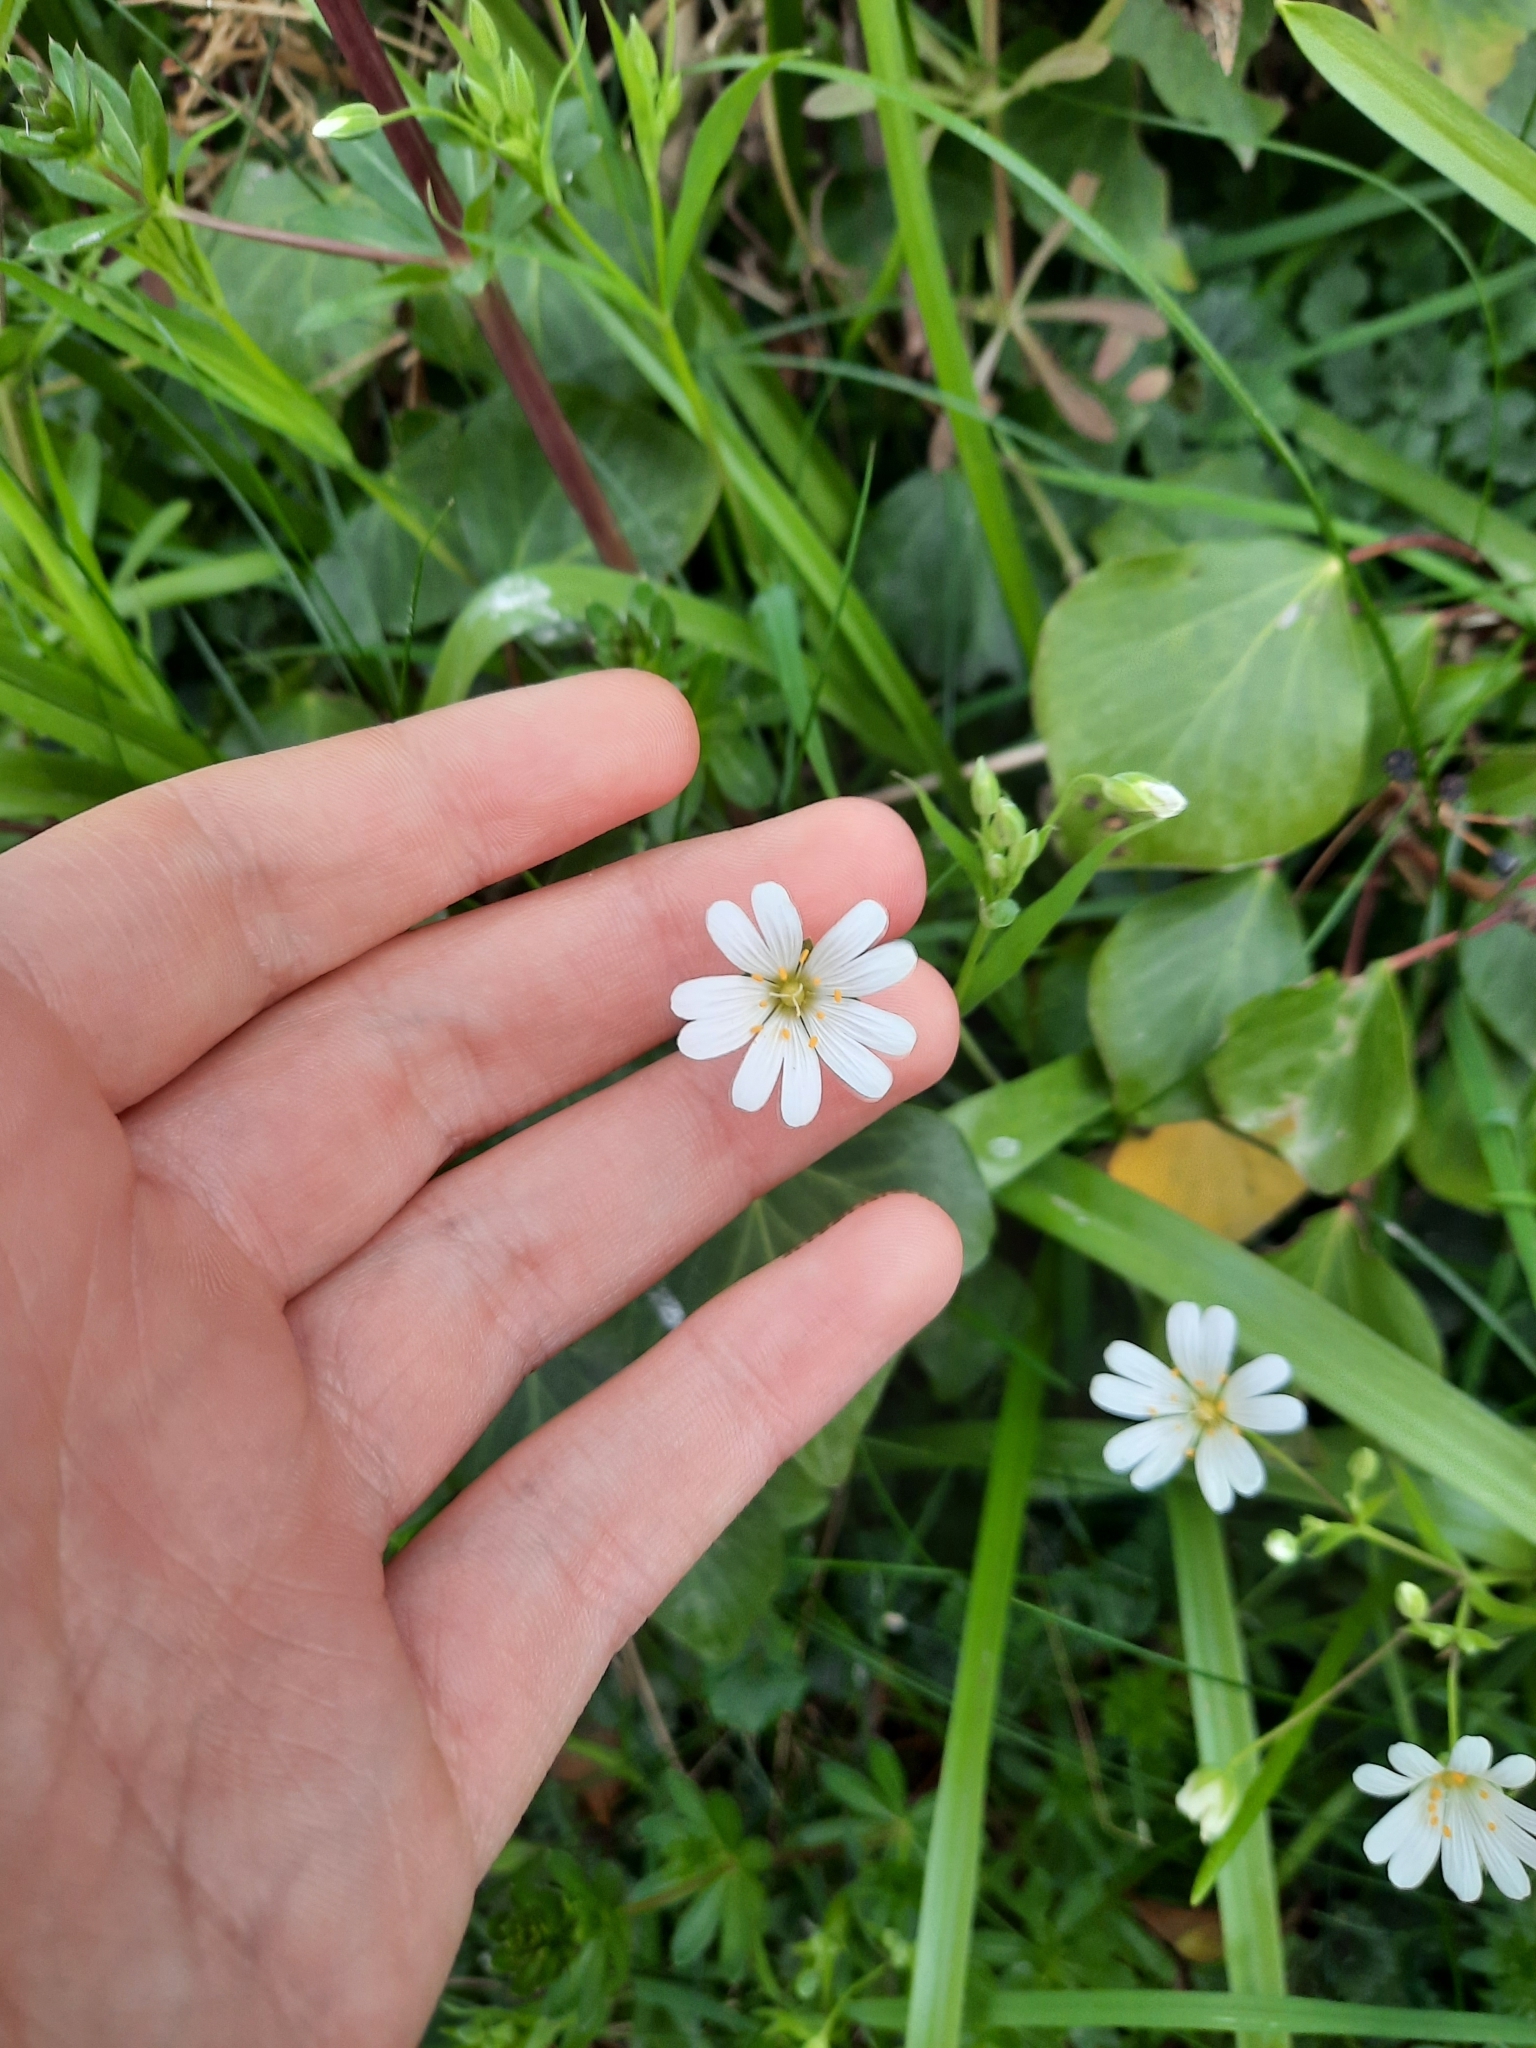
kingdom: Plantae
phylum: Tracheophyta
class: Magnoliopsida
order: Caryophyllales
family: Caryophyllaceae
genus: Rabelera
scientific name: Rabelera holostea
